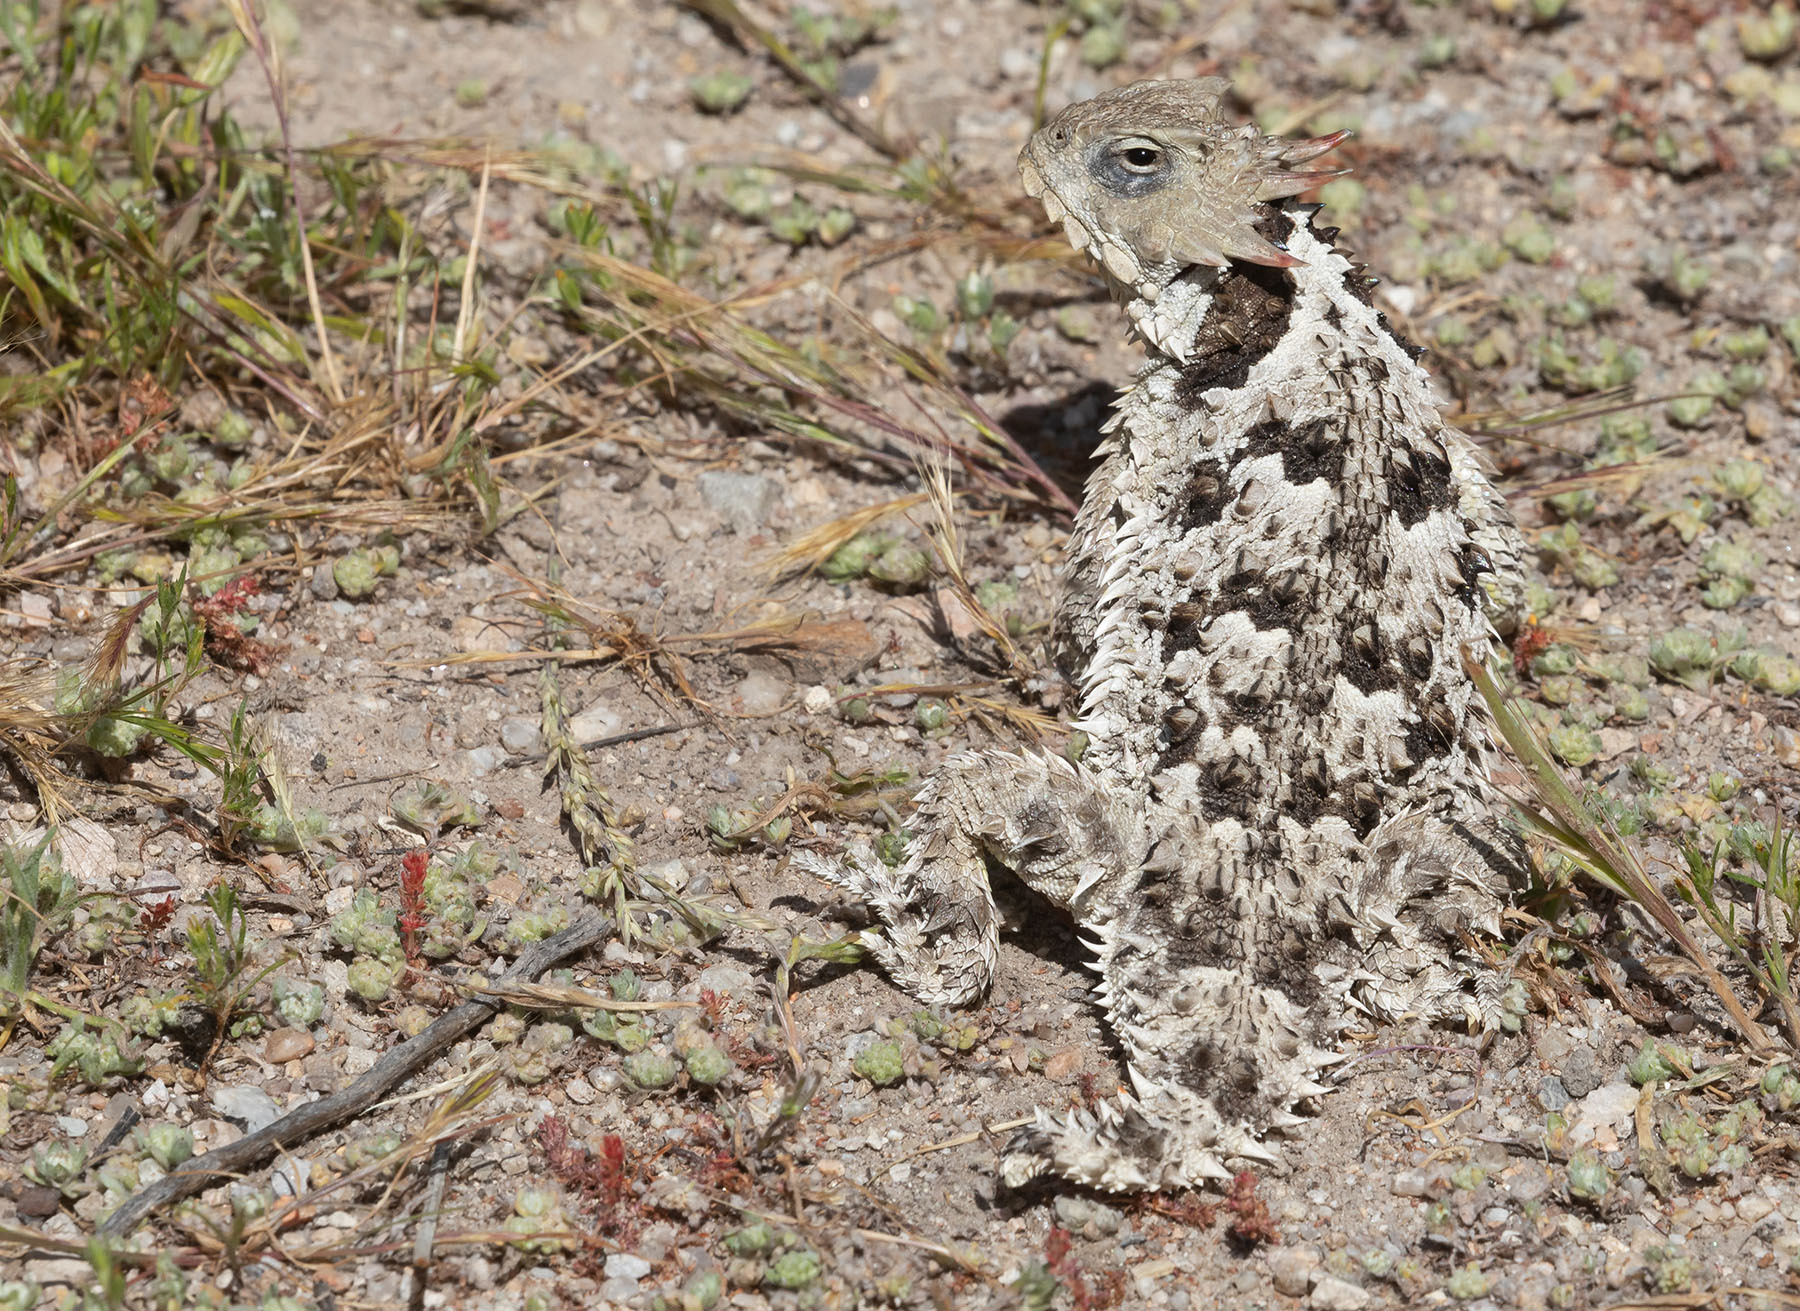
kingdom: Animalia
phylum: Chordata
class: Squamata
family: Phrynosomatidae
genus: Phrynosoma
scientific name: Phrynosoma blainvillii
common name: San diego horned lizard
